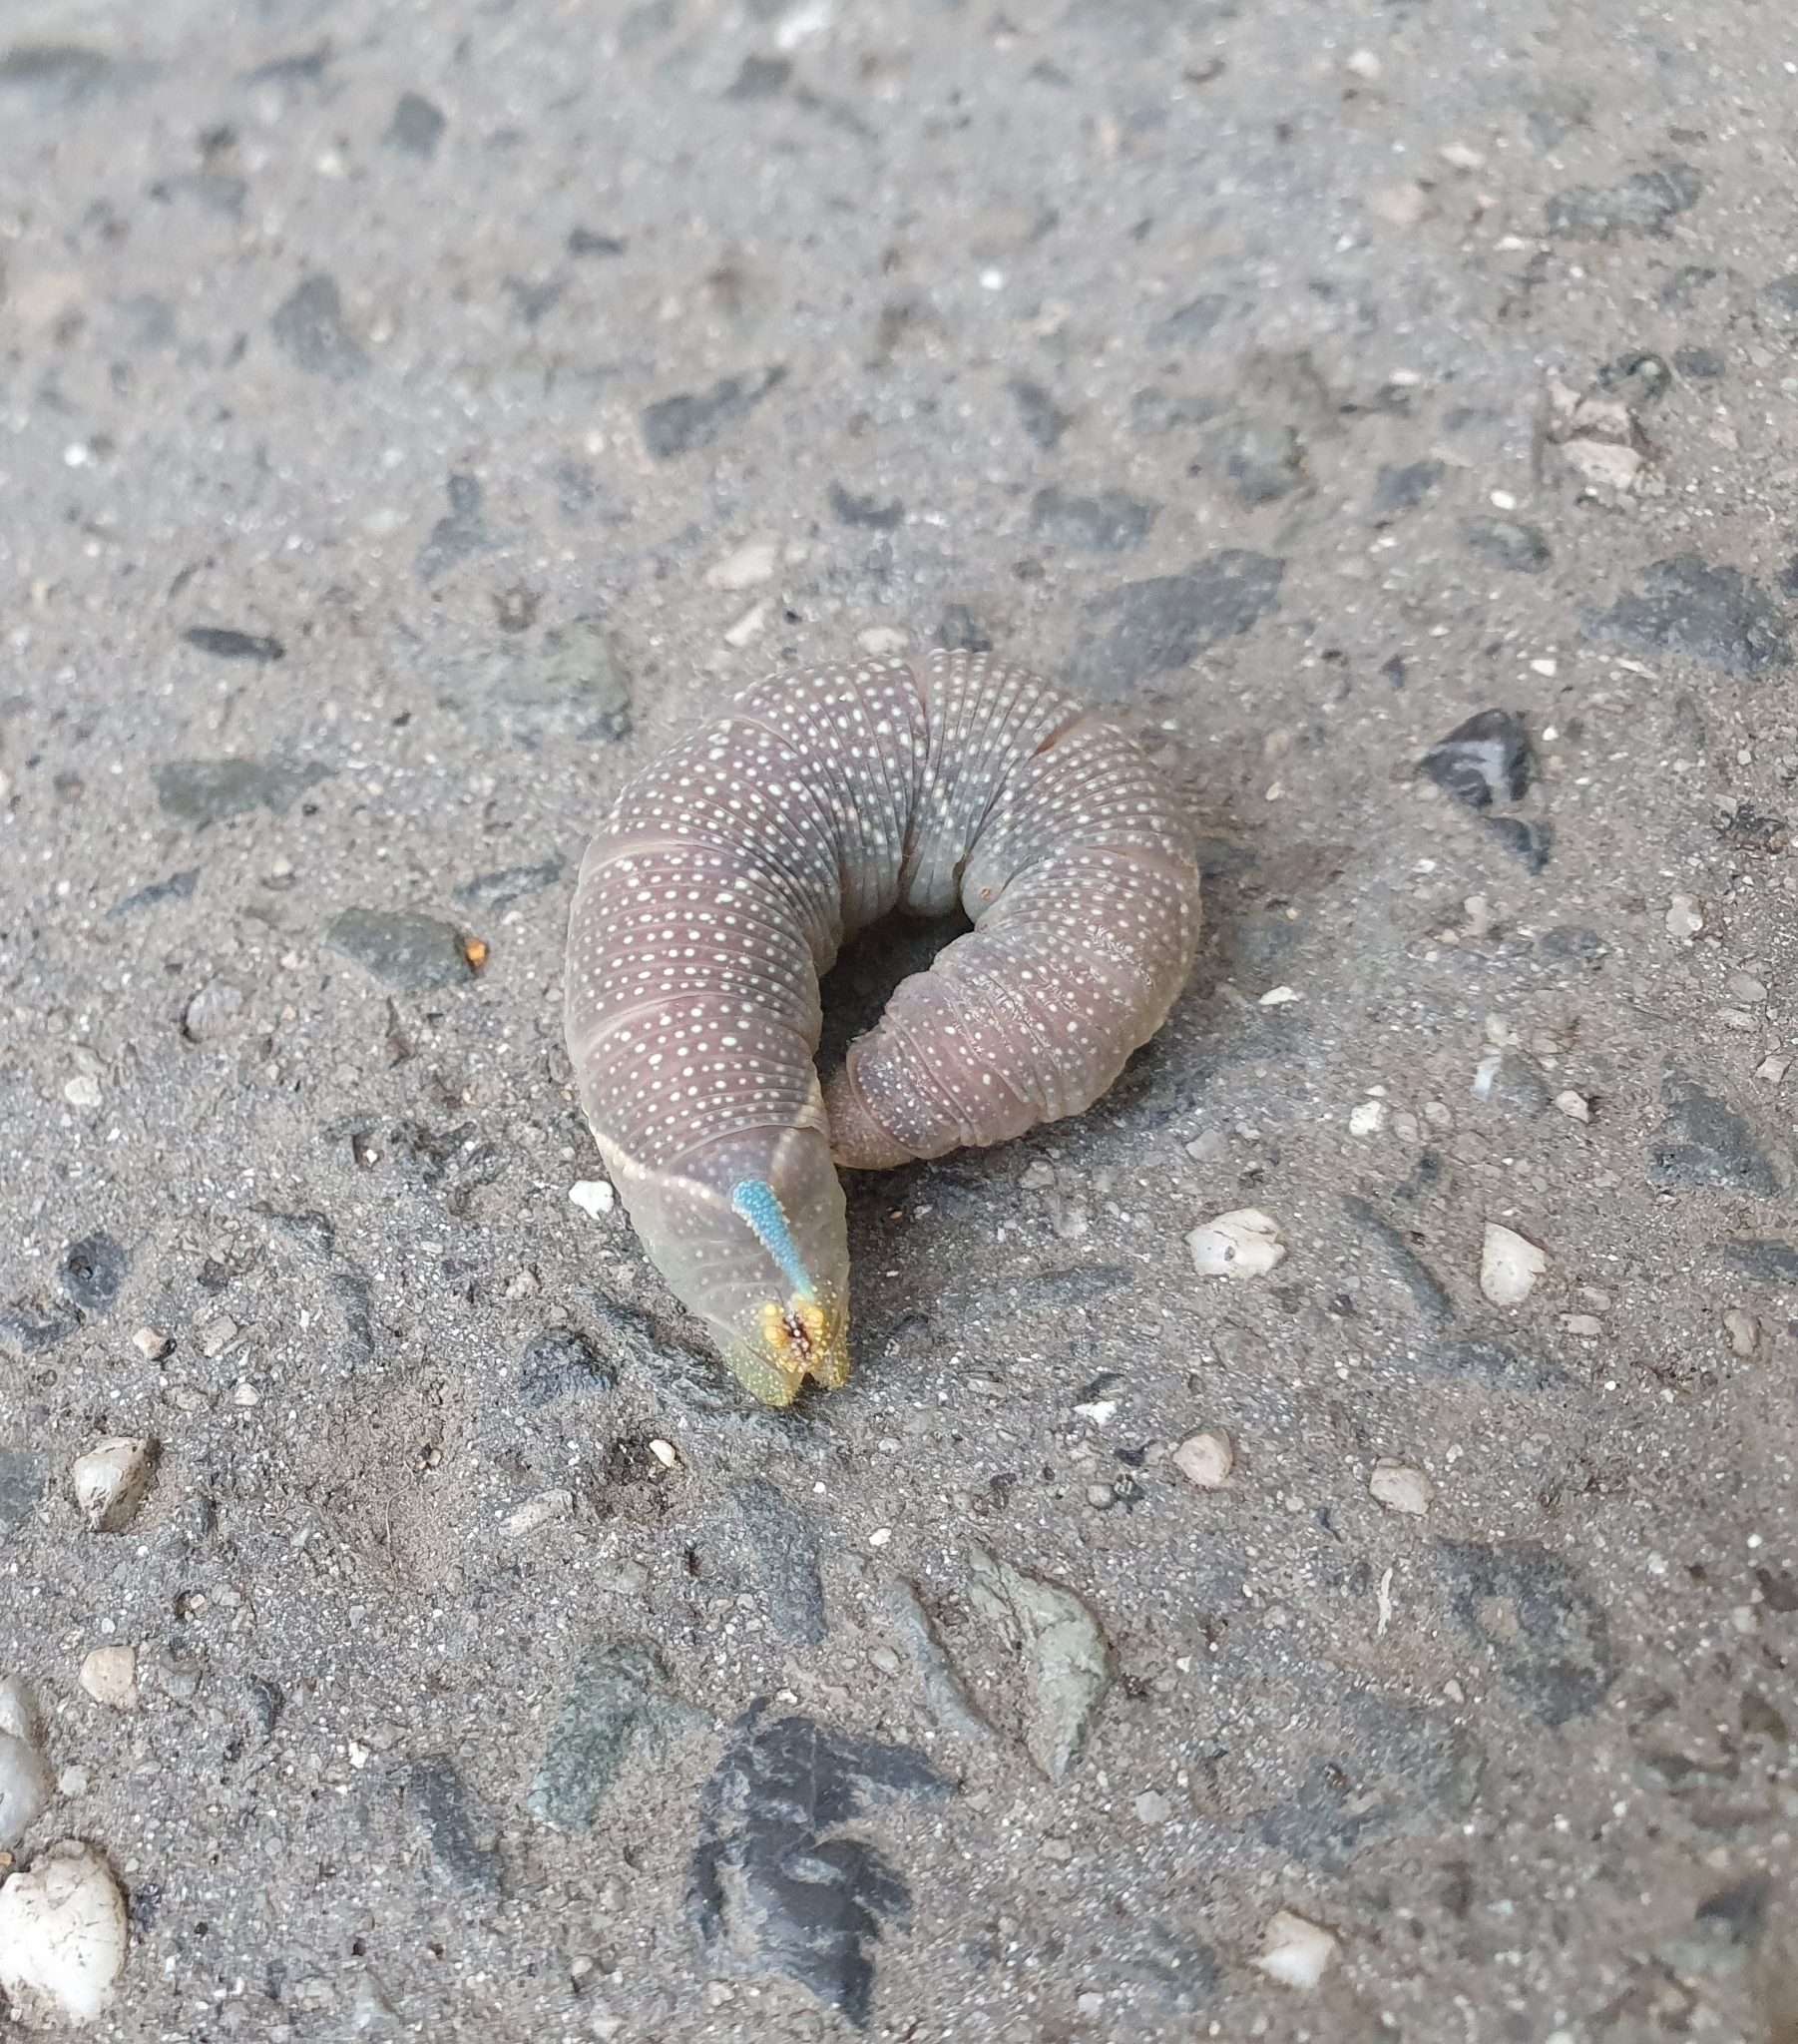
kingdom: Animalia
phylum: Arthropoda
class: Insecta
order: Lepidoptera
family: Sphingidae
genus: Mimas
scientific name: Mimas tiliae
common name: Lime hawk-moth
